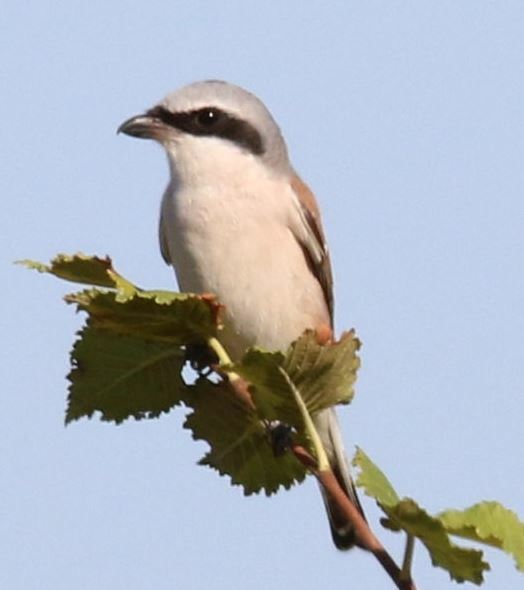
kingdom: Animalia
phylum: Chordata
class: Aves
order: Passeriformes
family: Laniidae
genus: Lanius
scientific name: Lanius collurio
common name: Red-backed shrike
